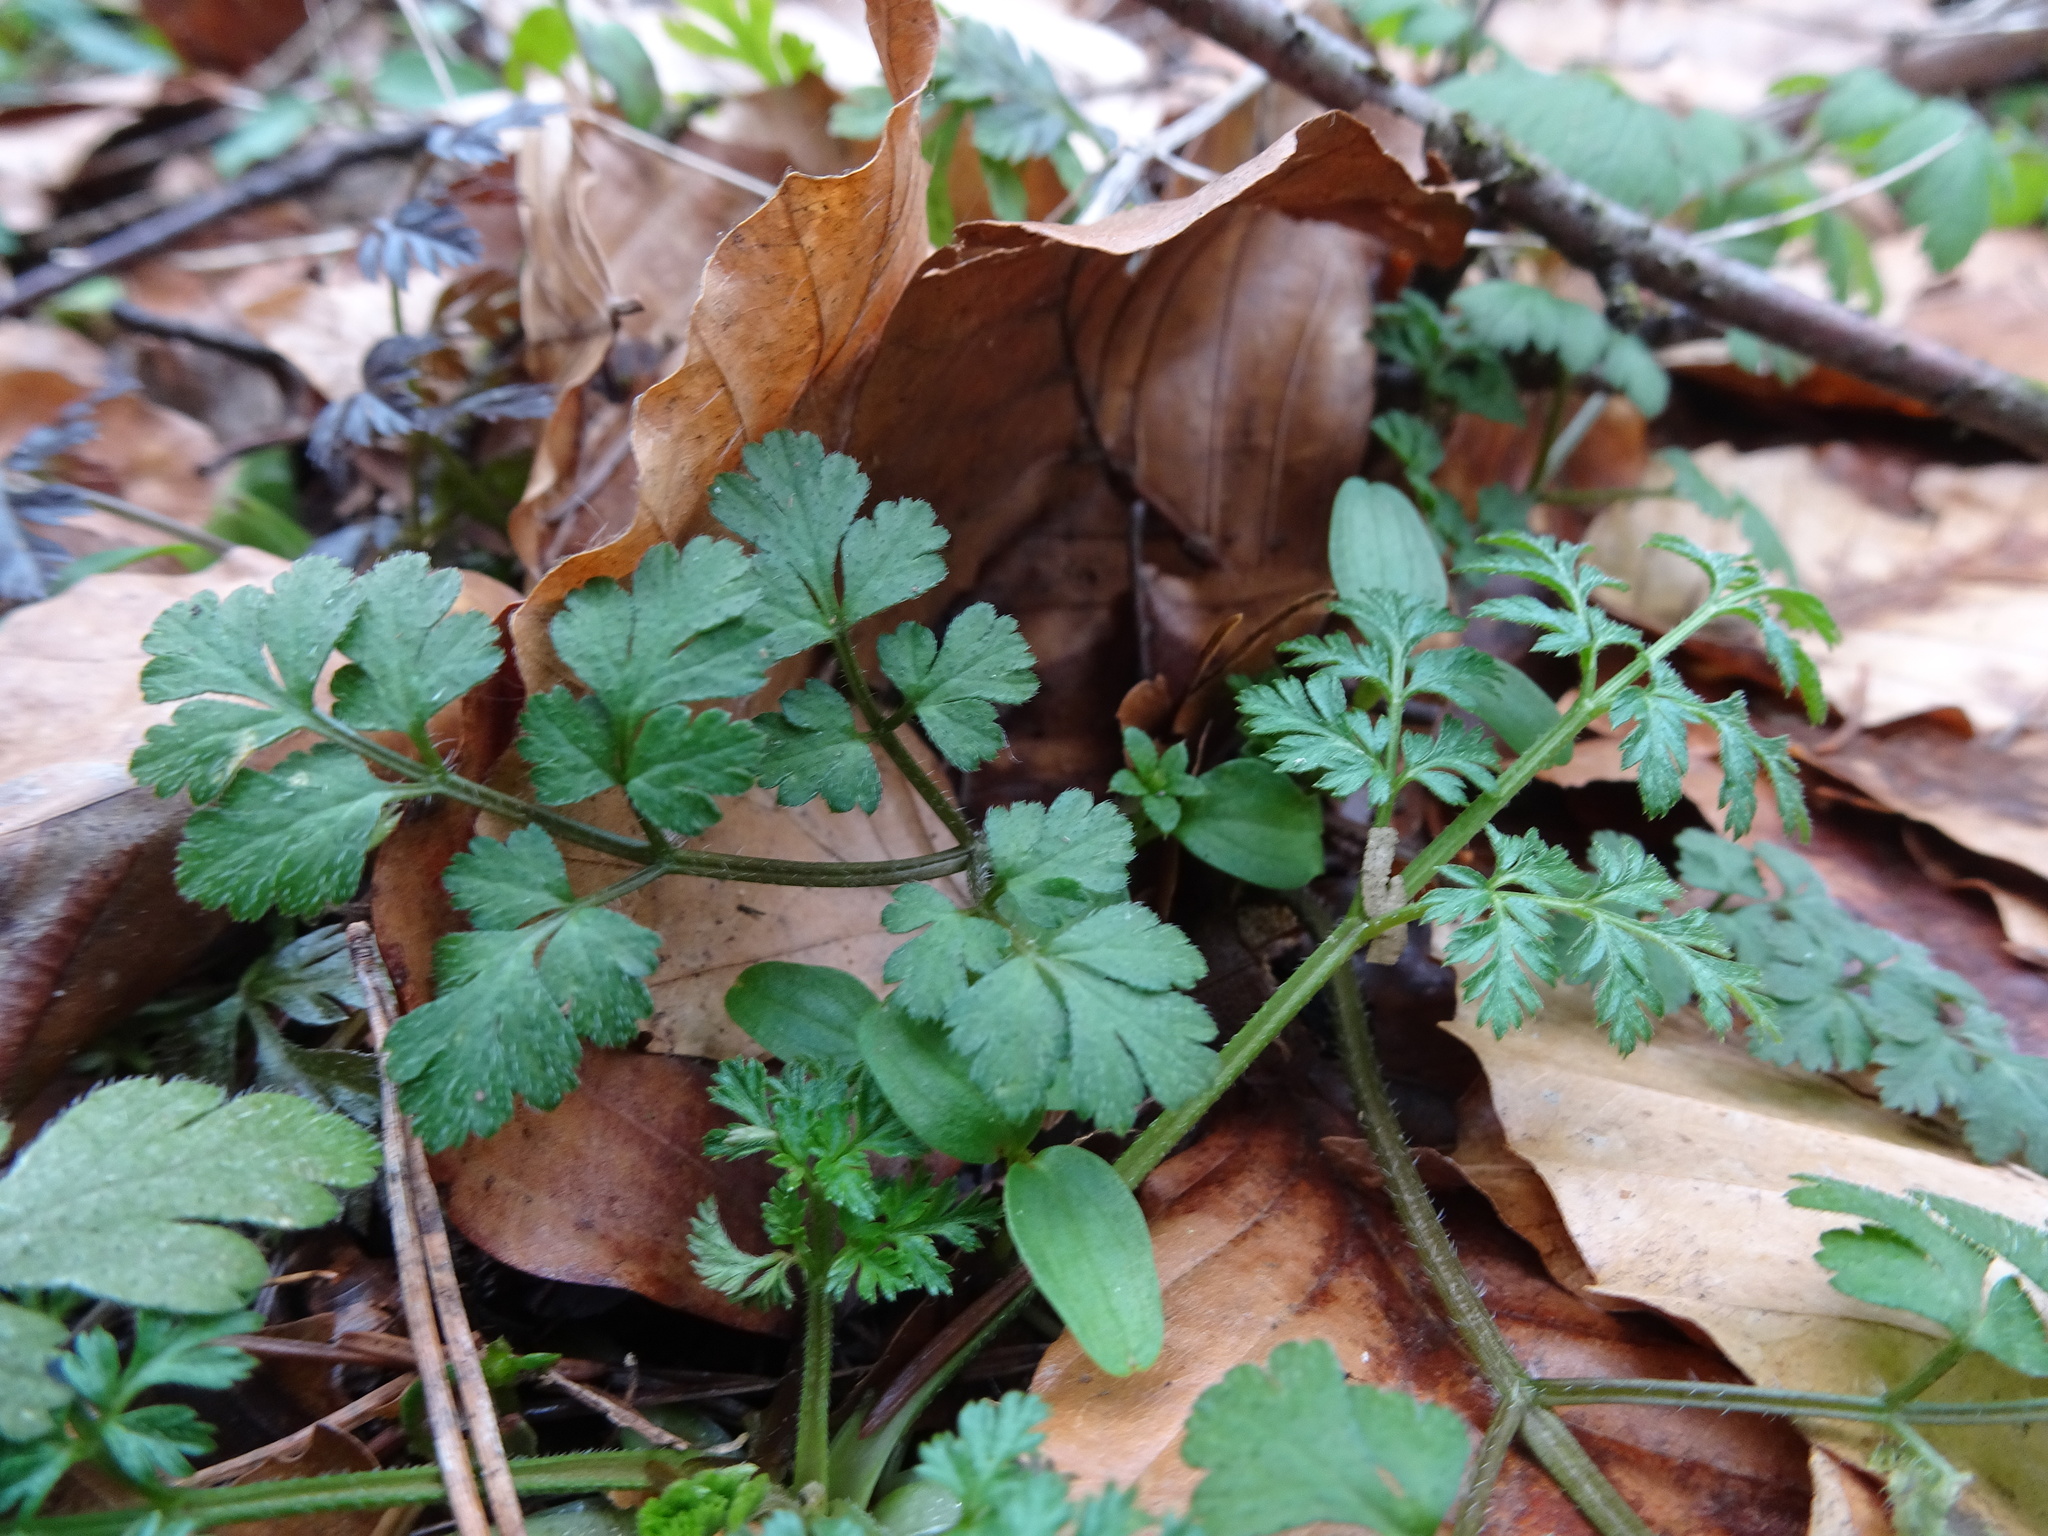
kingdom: Plantae
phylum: Tracheophyta
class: Magnoliopsida
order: Geraniales
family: Geraniaceae
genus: Geranium
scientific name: Geranium robertianum
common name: Herb-robert
